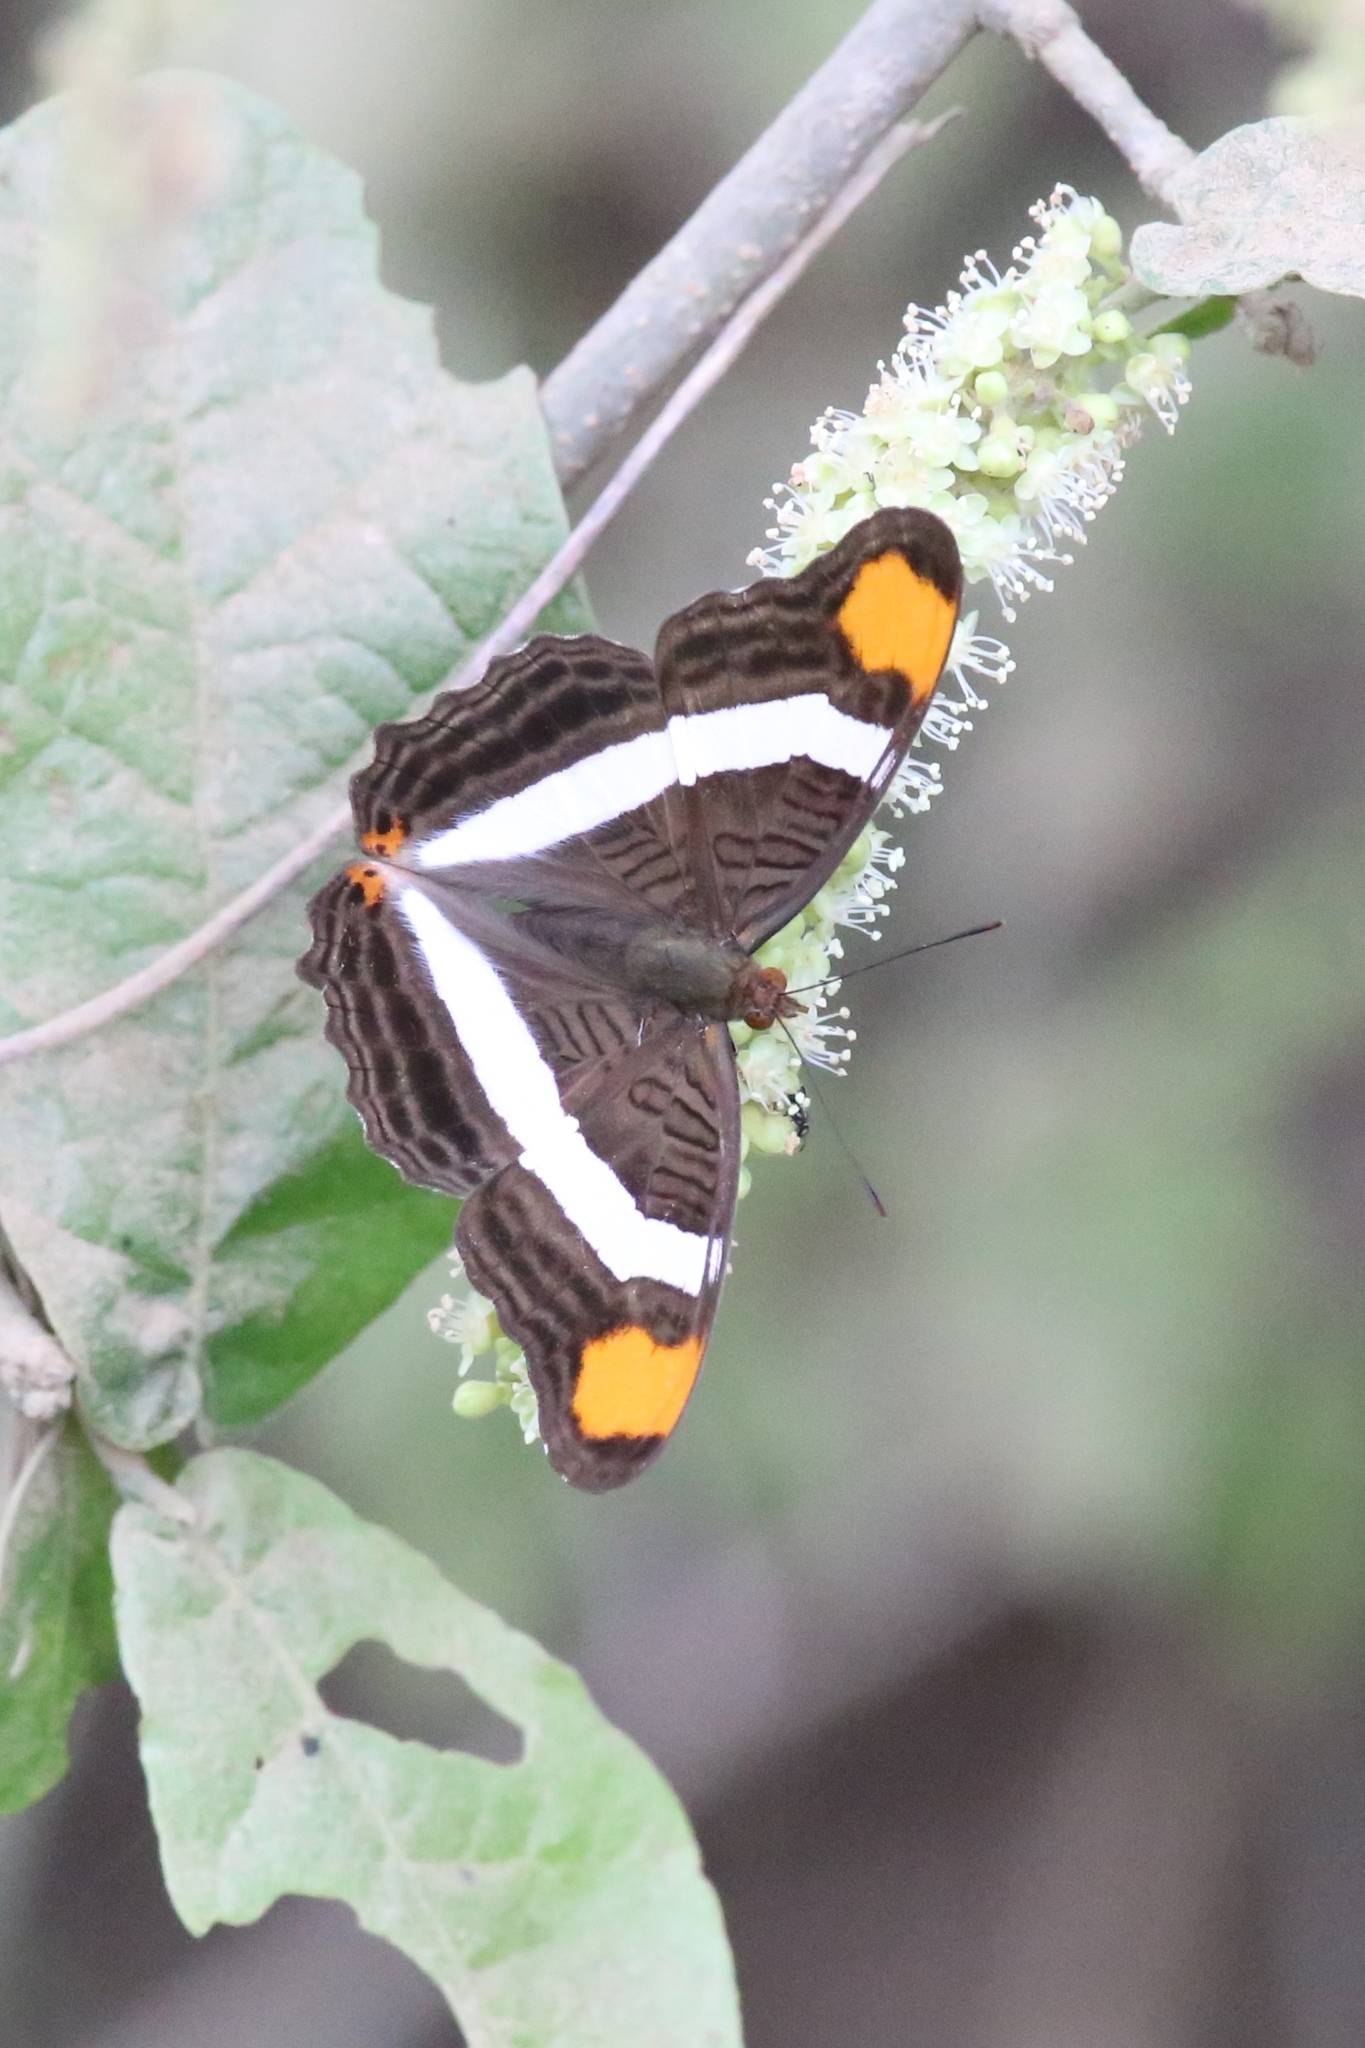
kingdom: Animalia
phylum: Arthropoda
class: Insecta
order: Lepidoptera
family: Nymphalidae
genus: Limenitis
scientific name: Limenitis fessonia
